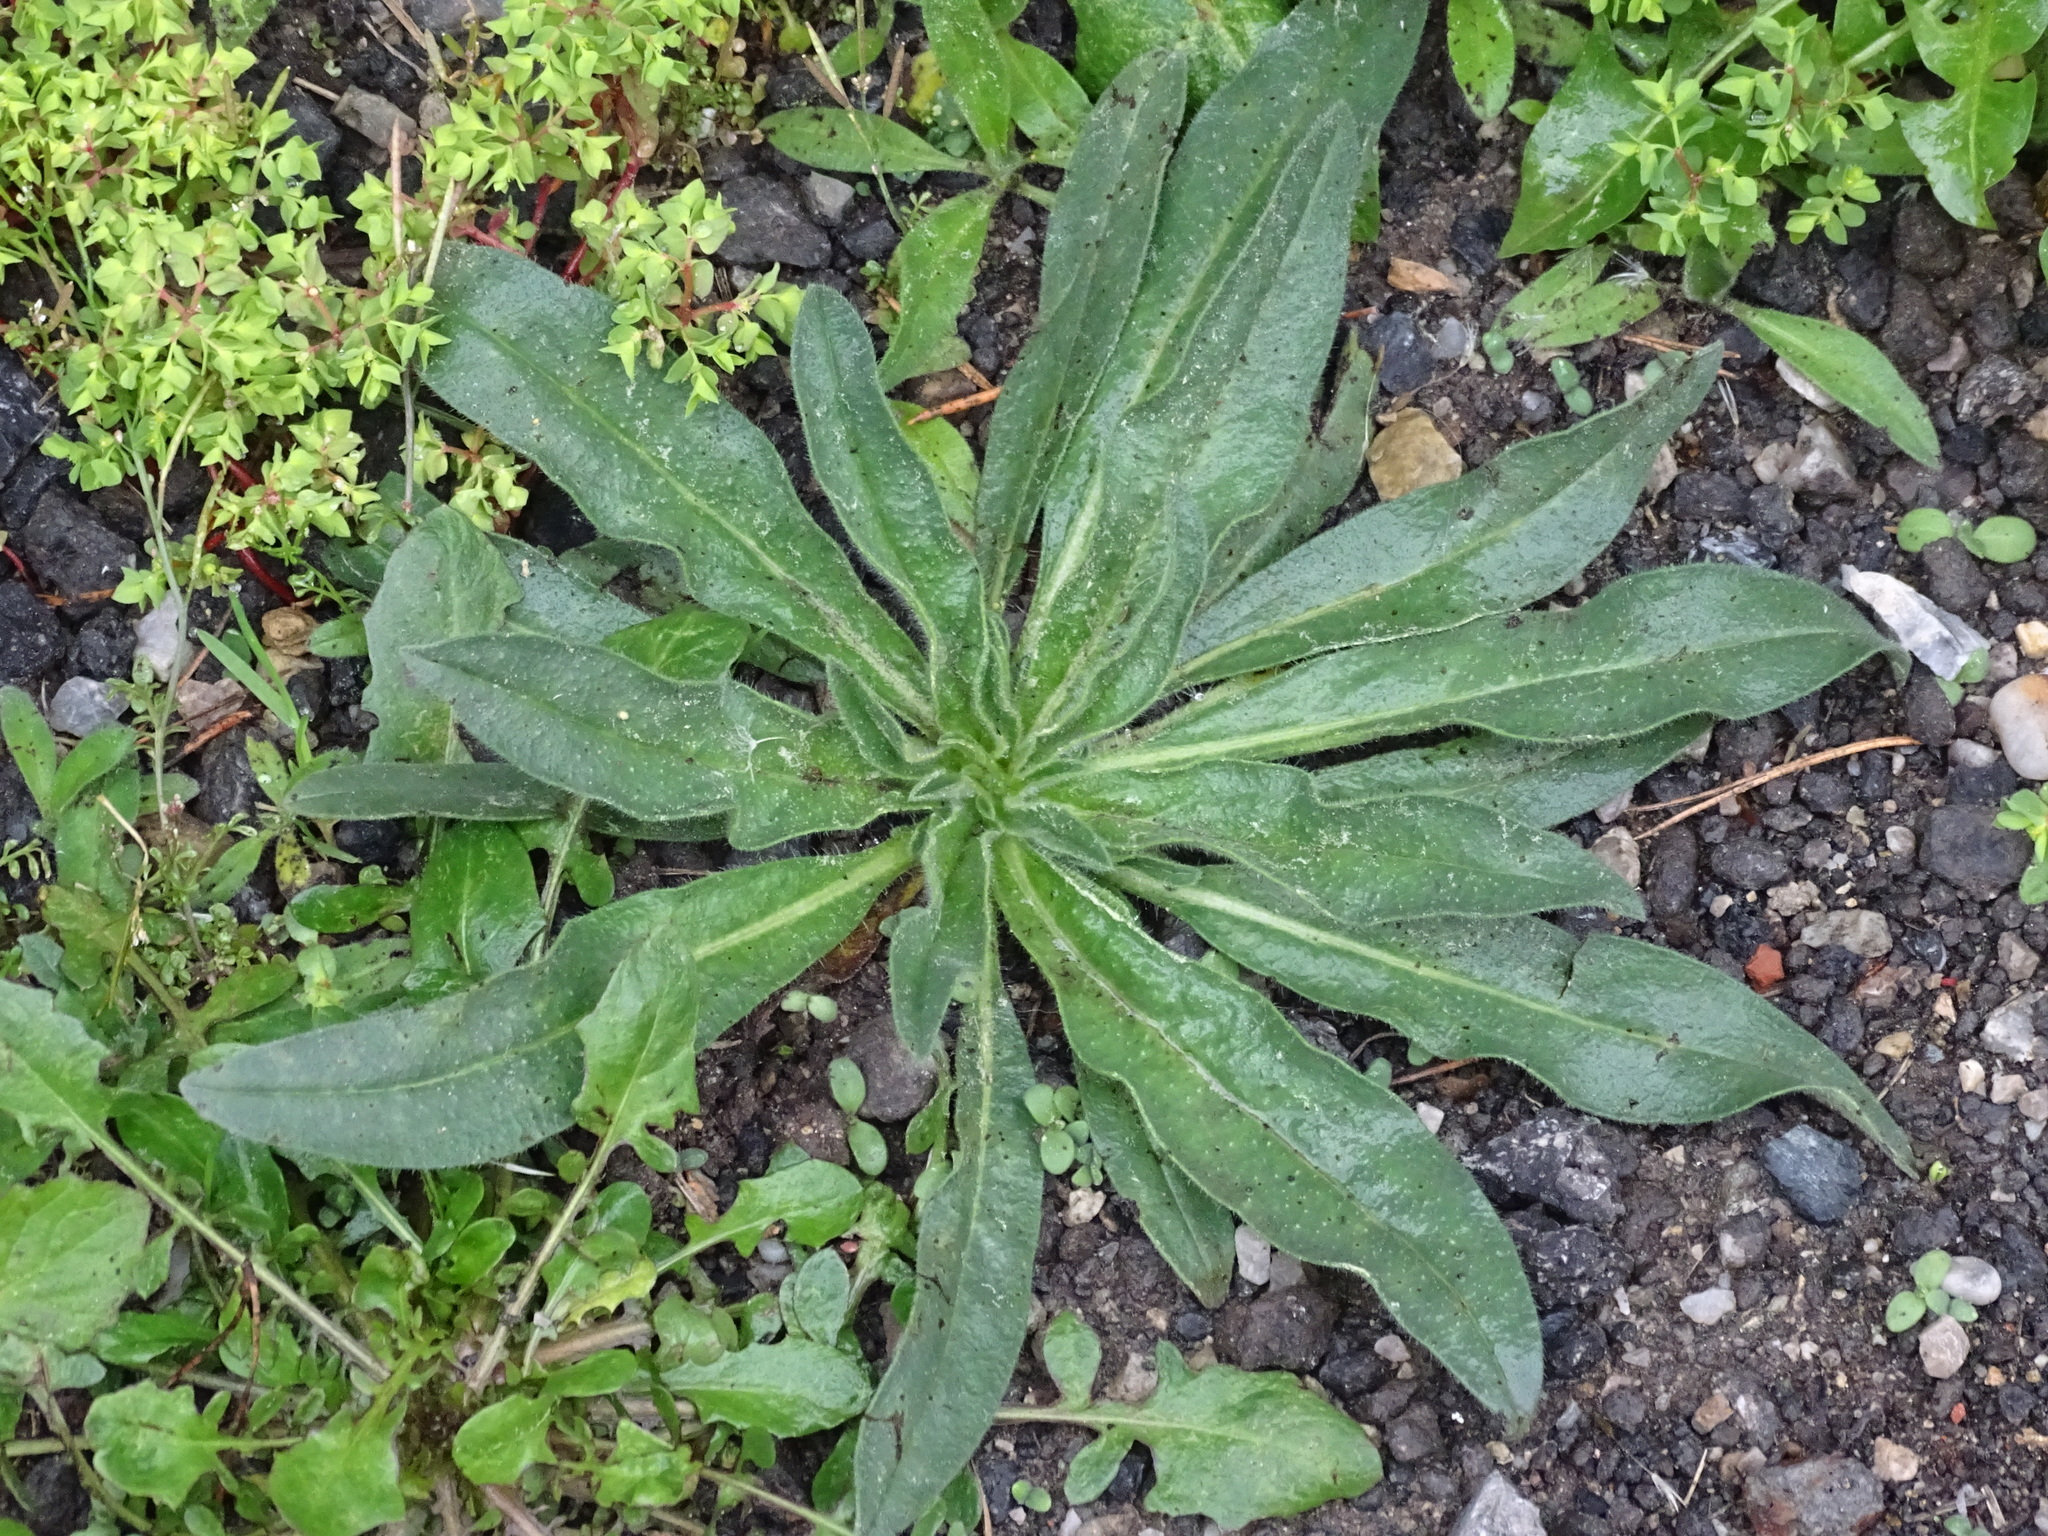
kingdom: Plantae
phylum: Tracheophyta
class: Magnoliopsida
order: Boraginales
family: Boraginaceae
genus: Echium
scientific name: Echium vulgare
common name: Common viper's bugloss
